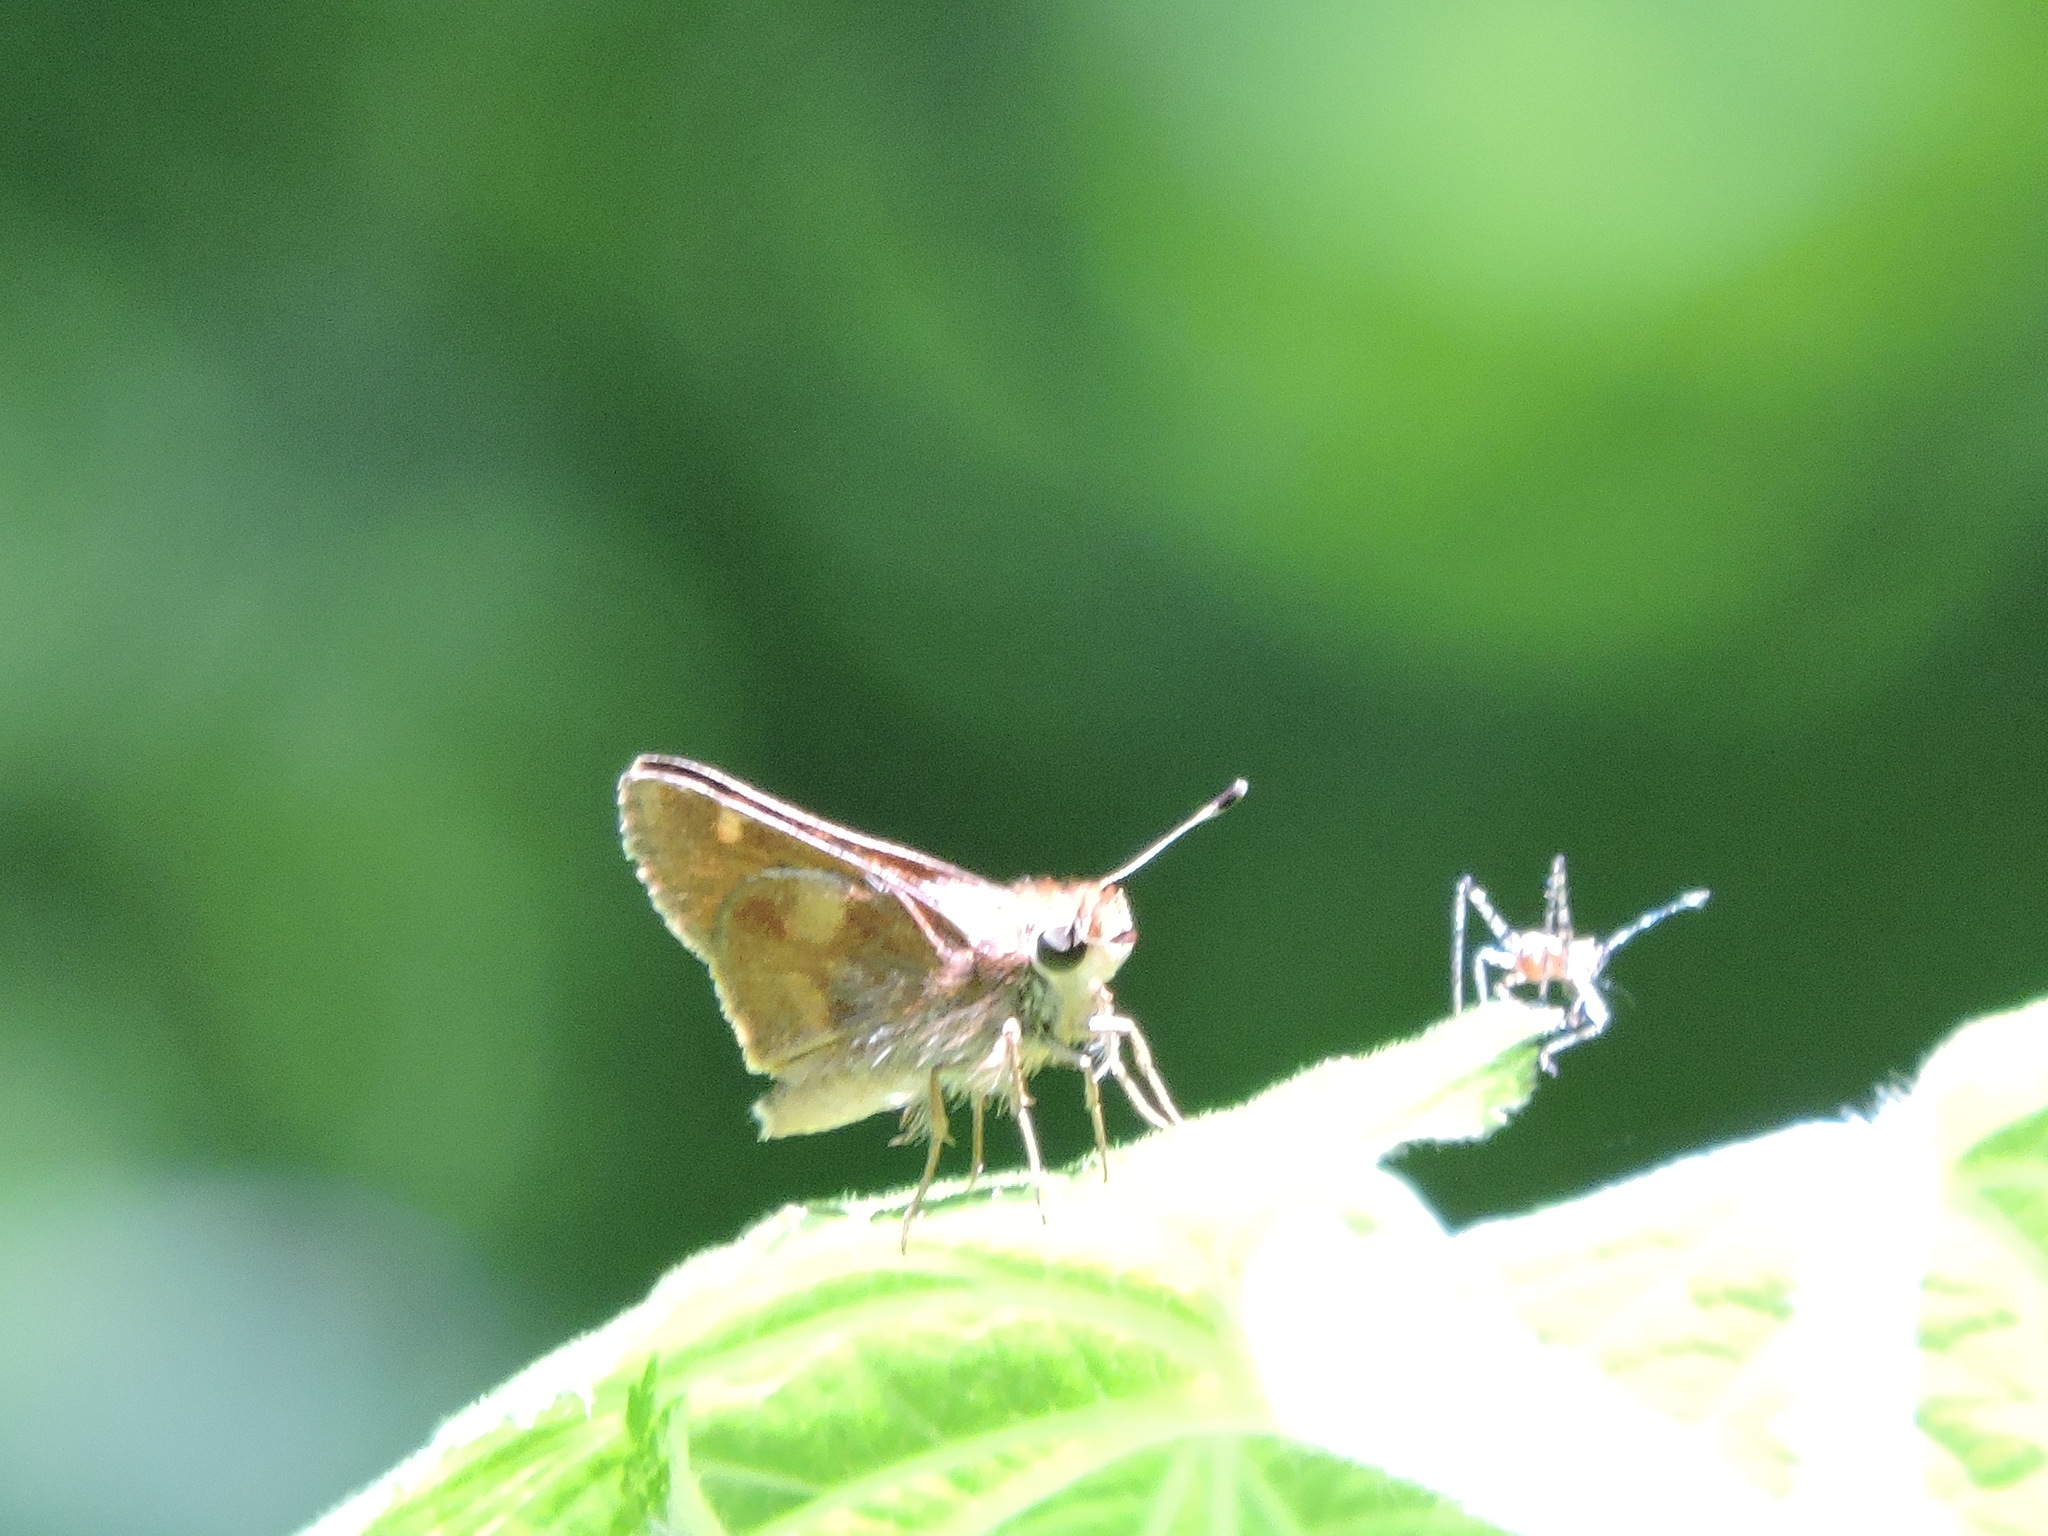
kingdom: Animalia
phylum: Arthropoda
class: Insecta
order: Lepidoptera
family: Hesperiidae
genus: Lon
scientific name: Lon melane
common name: Umber skipper
